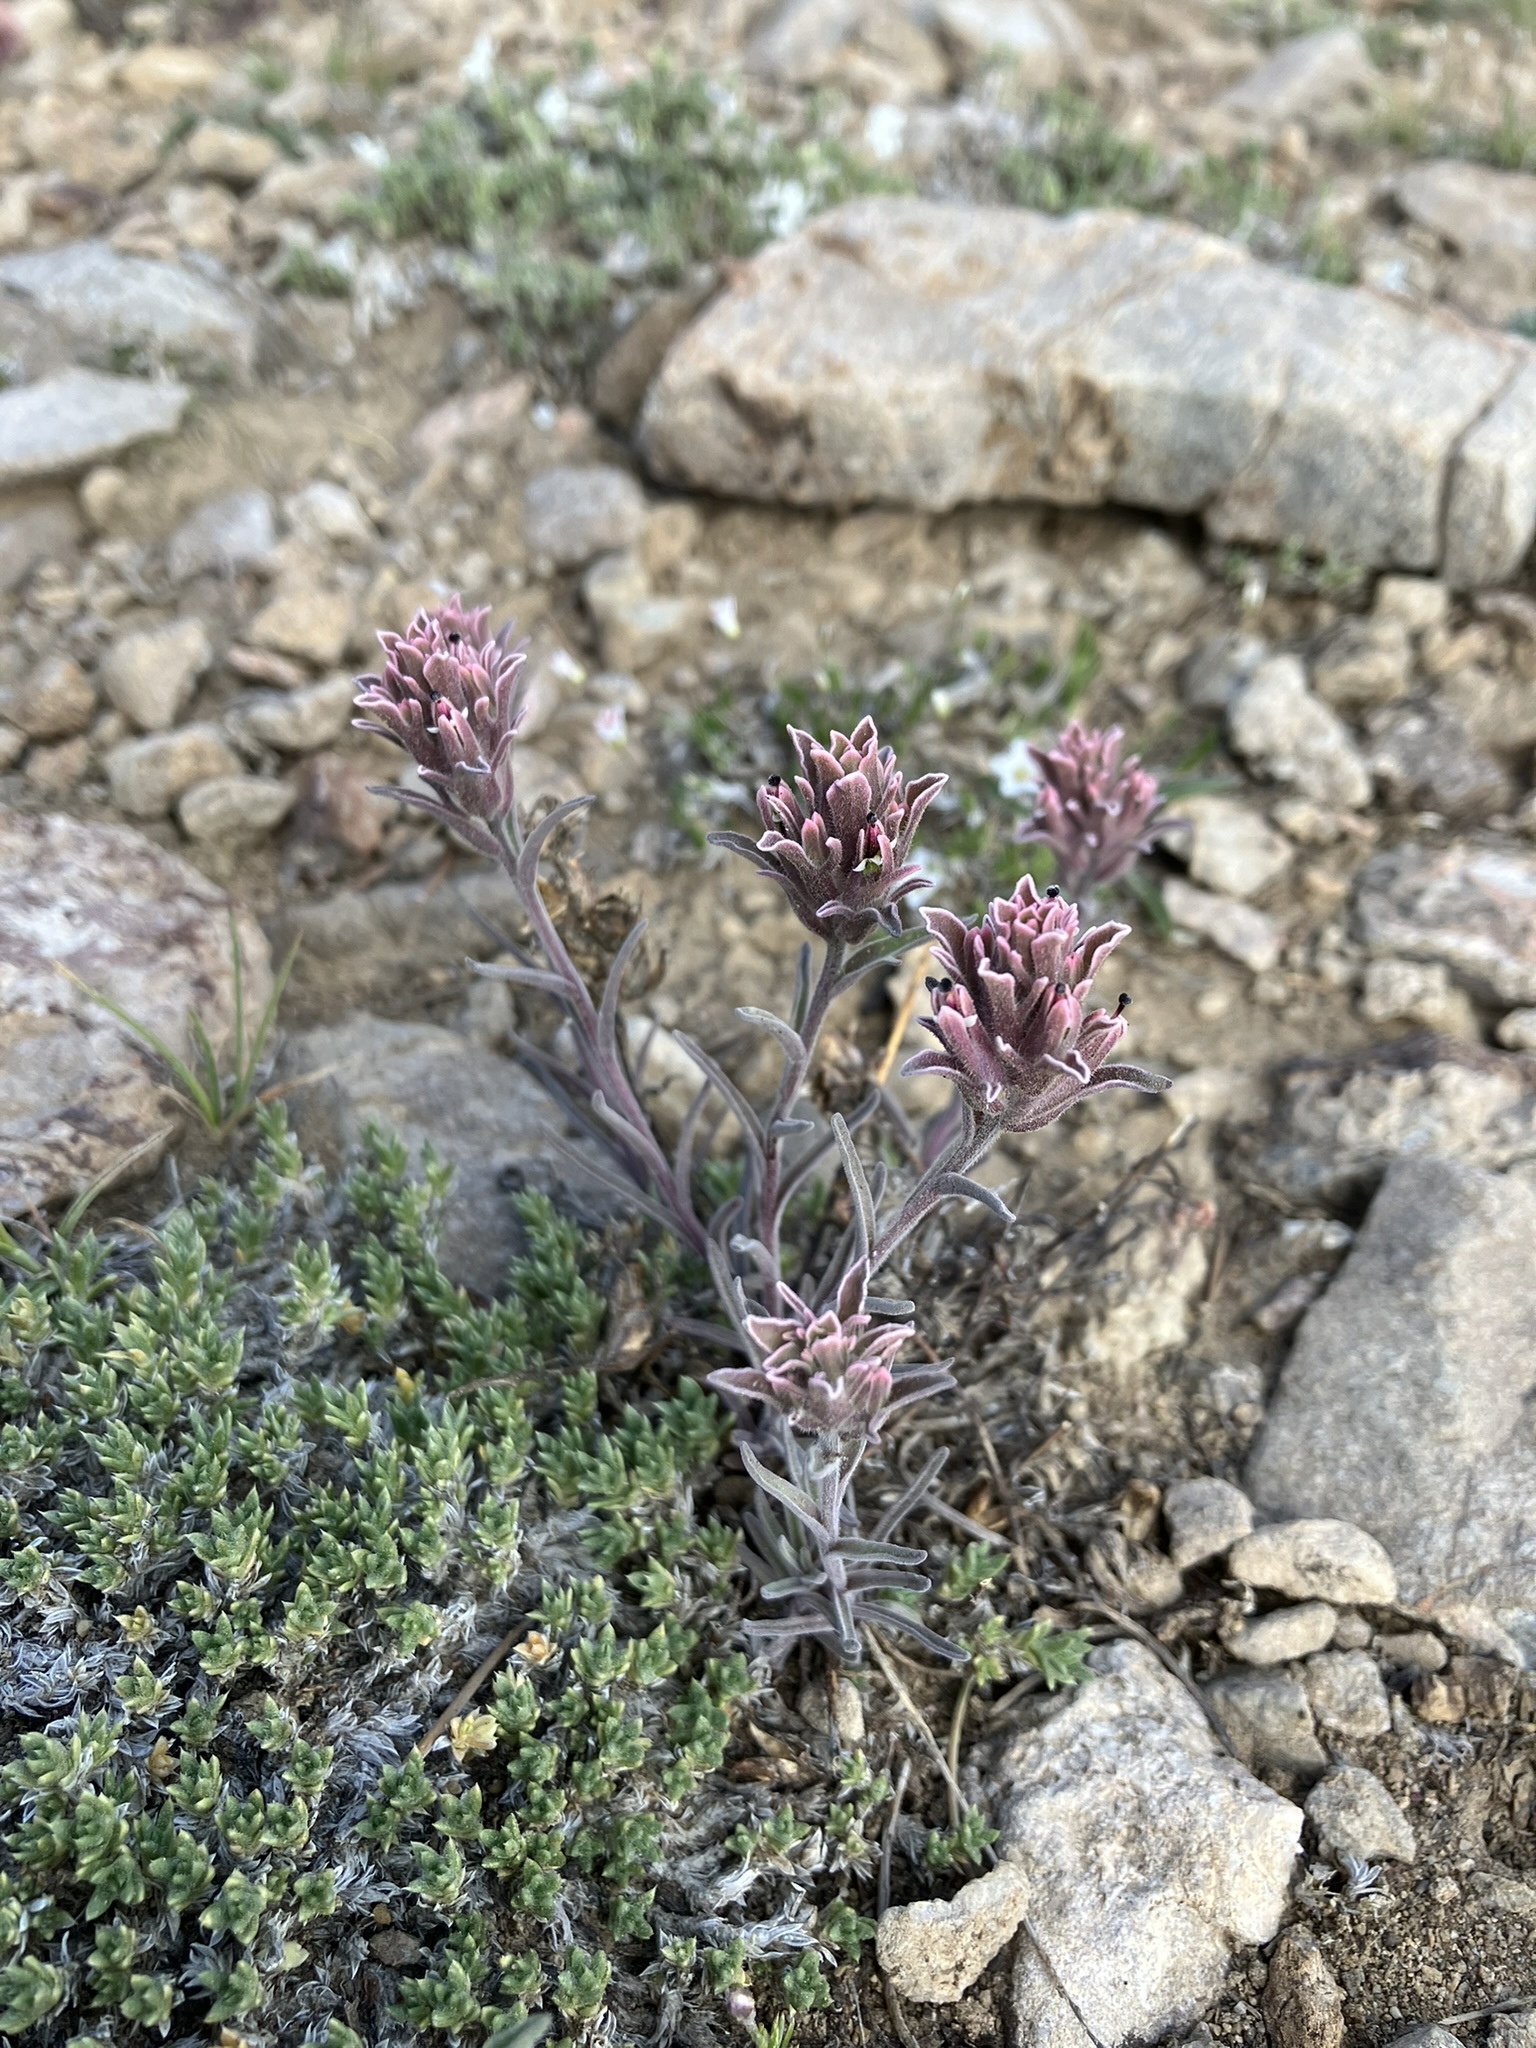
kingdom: Plantae
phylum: Tracheophyta
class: Magnoliopsida
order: Lamiales
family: Orobanchaceae
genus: Castilleja
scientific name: Castilleja nana
